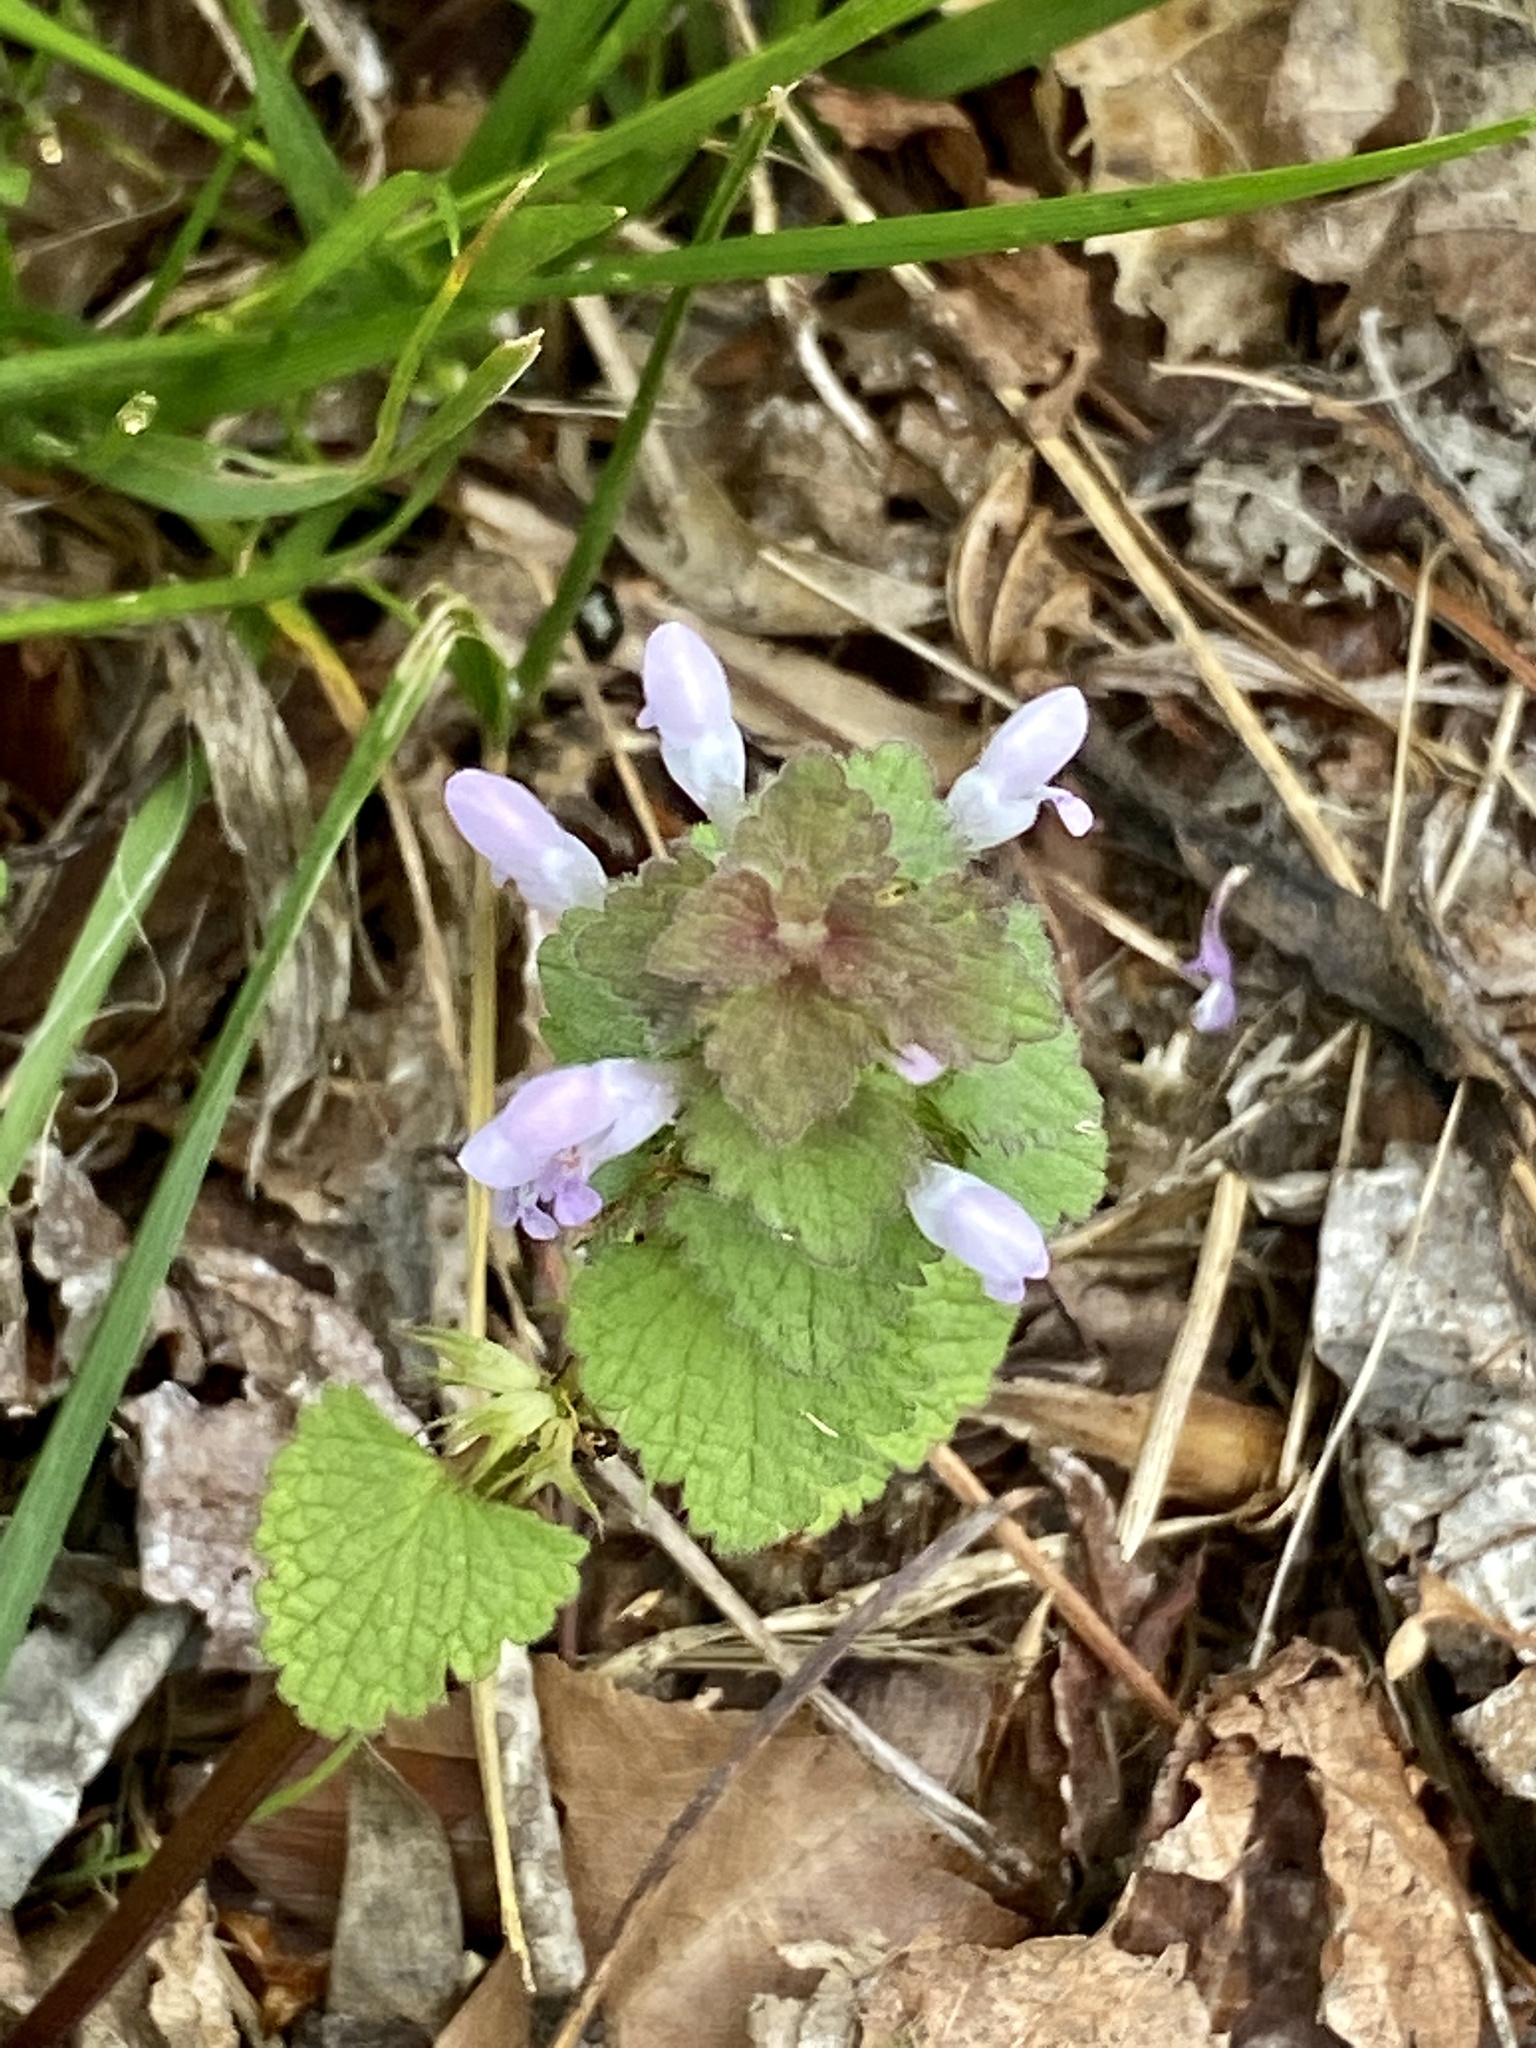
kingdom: Plantae
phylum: Tracheophyta
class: Magnoliopsida
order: Lamiales
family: Lamiaceae
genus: Lamium
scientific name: Lamium purpureum
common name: Red dead-nettle
